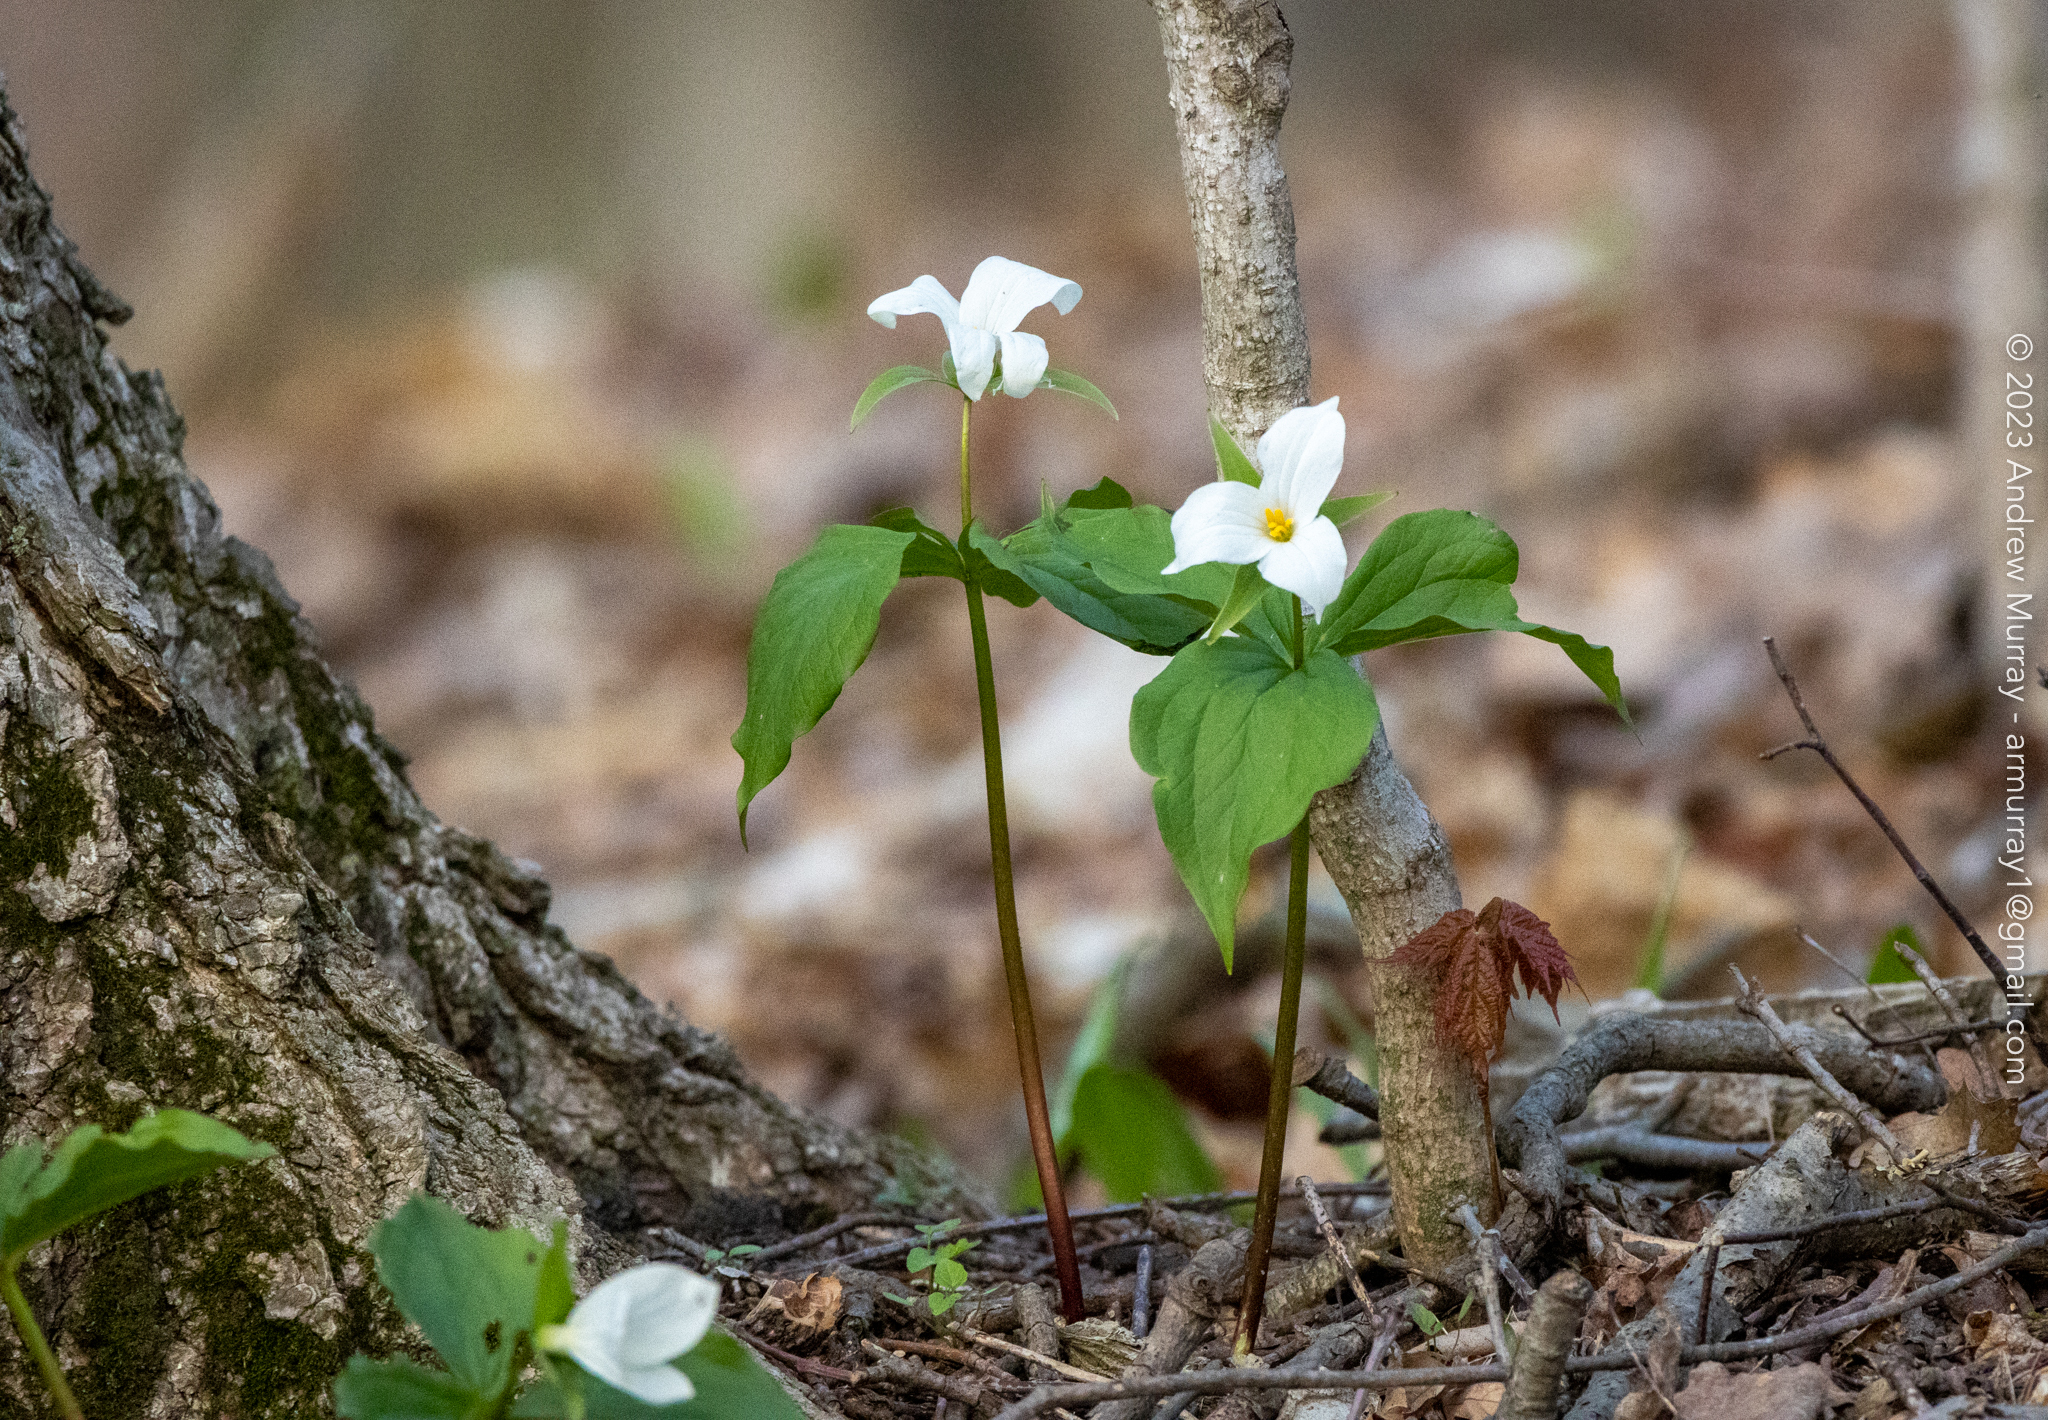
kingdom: Plantae
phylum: Tracheophyta
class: Liliopsida
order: Liliales
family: Melanthiaceae
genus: Trillium
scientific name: Trillium grandiflorum
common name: Great white trillium
